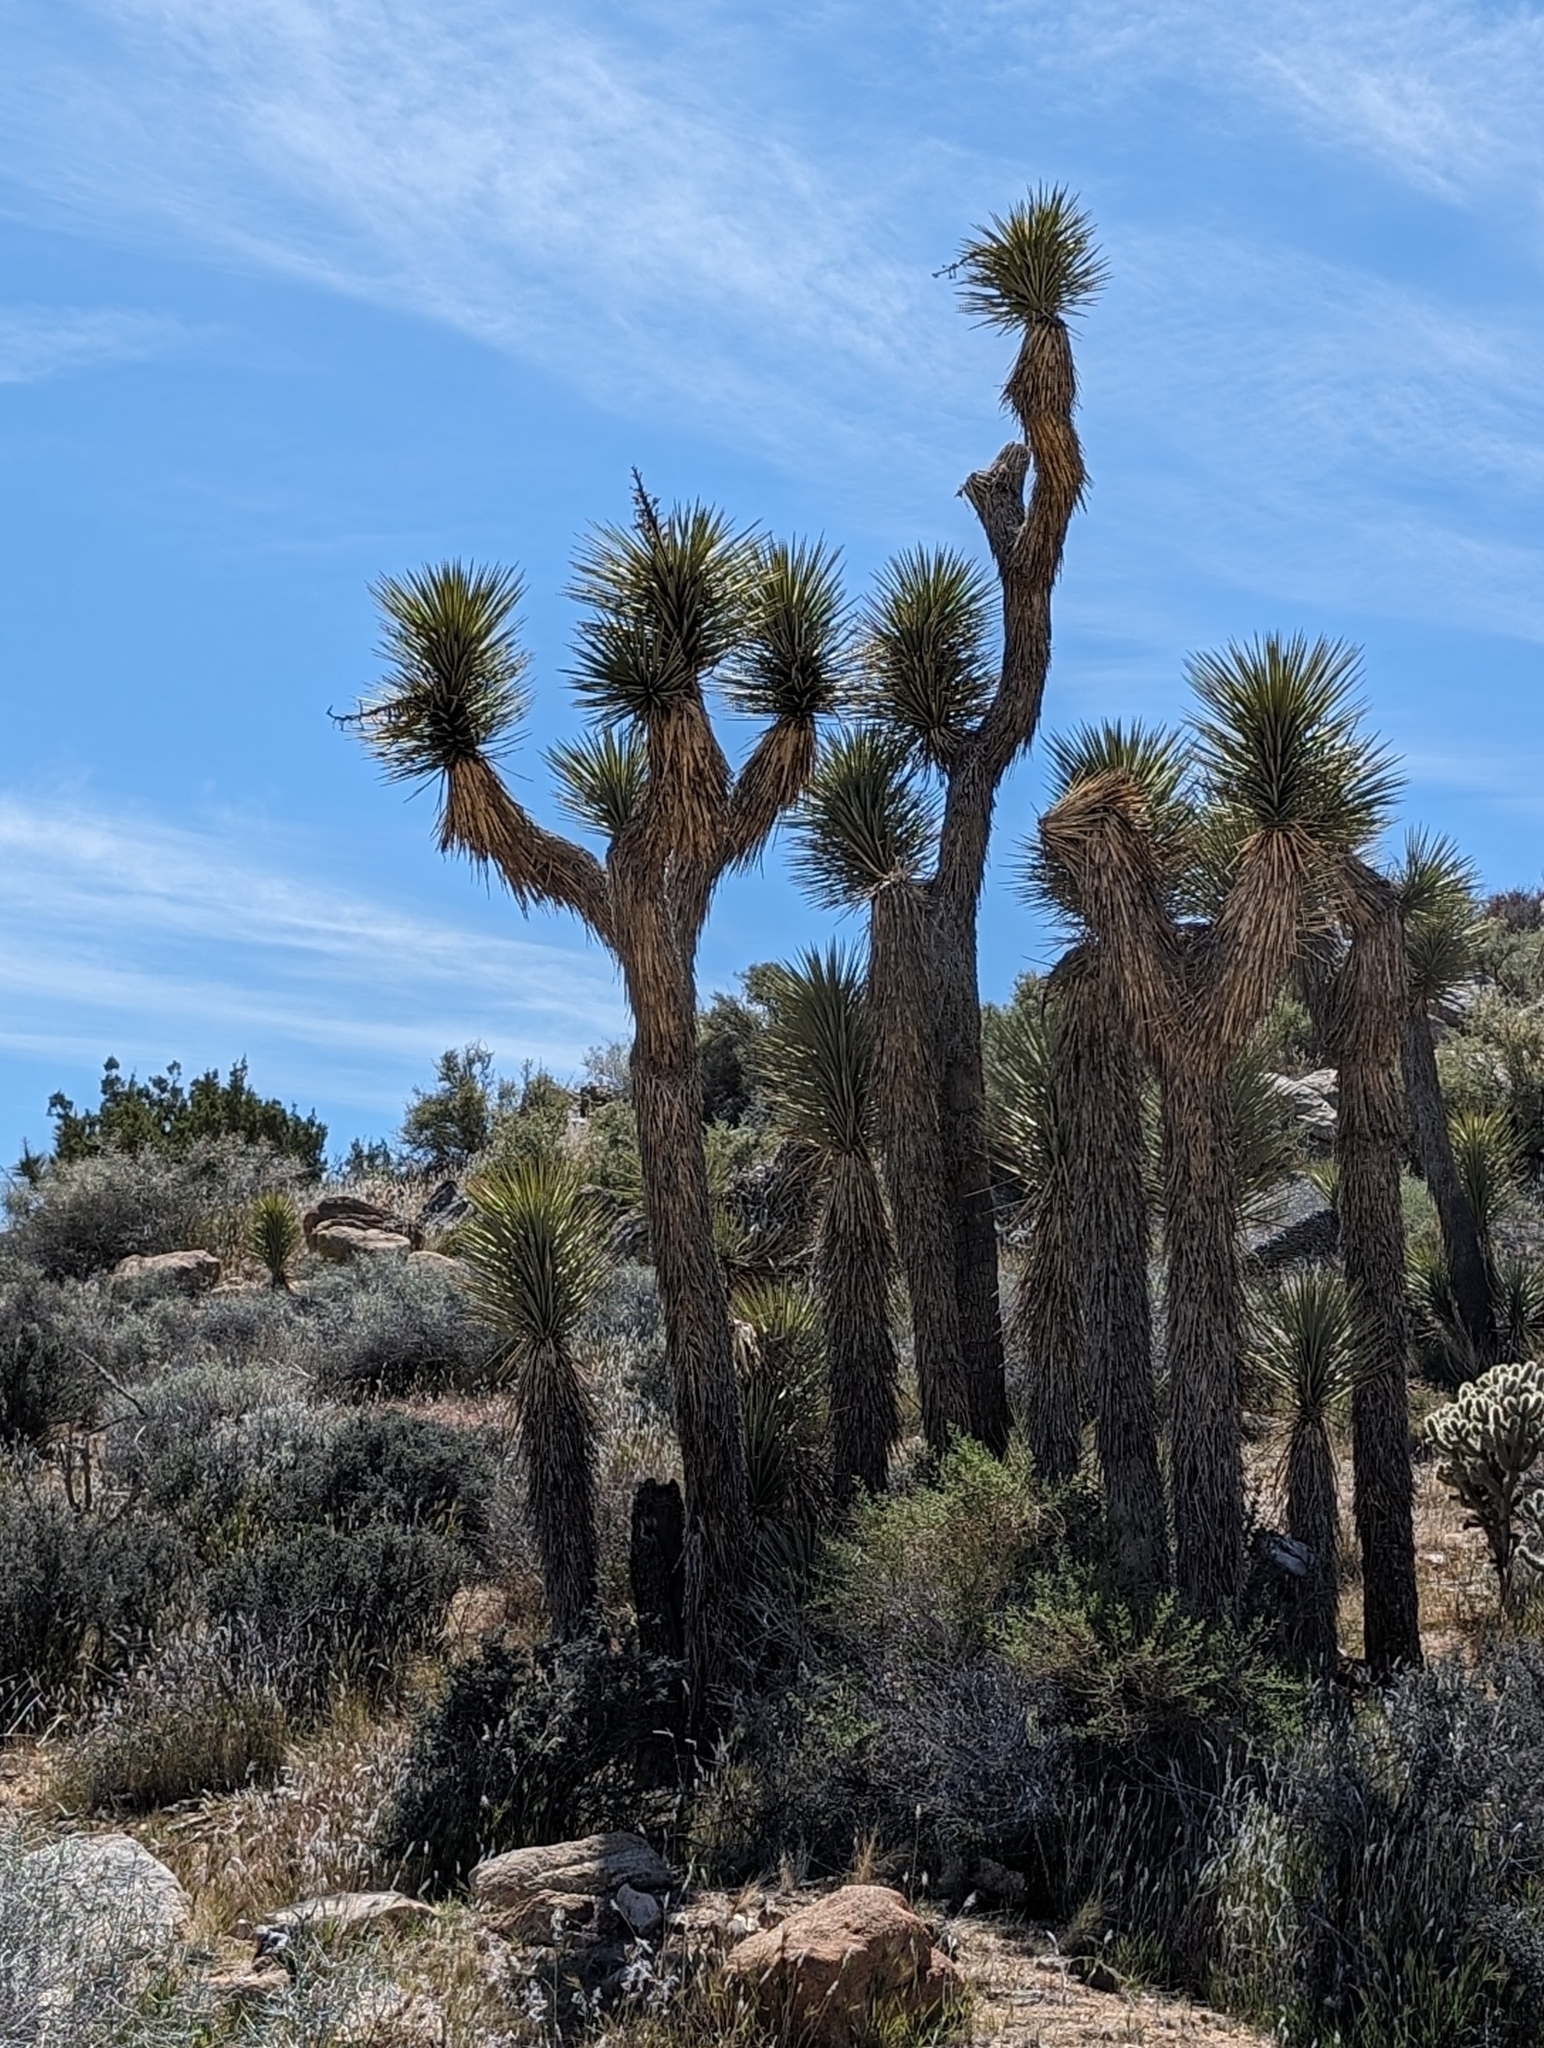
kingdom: Plantae
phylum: Tracheophyta
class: Liliopsida
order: Asparagales
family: Asparagaceae
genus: Yucca
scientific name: Yucca brevifolia
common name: Joshua tree
